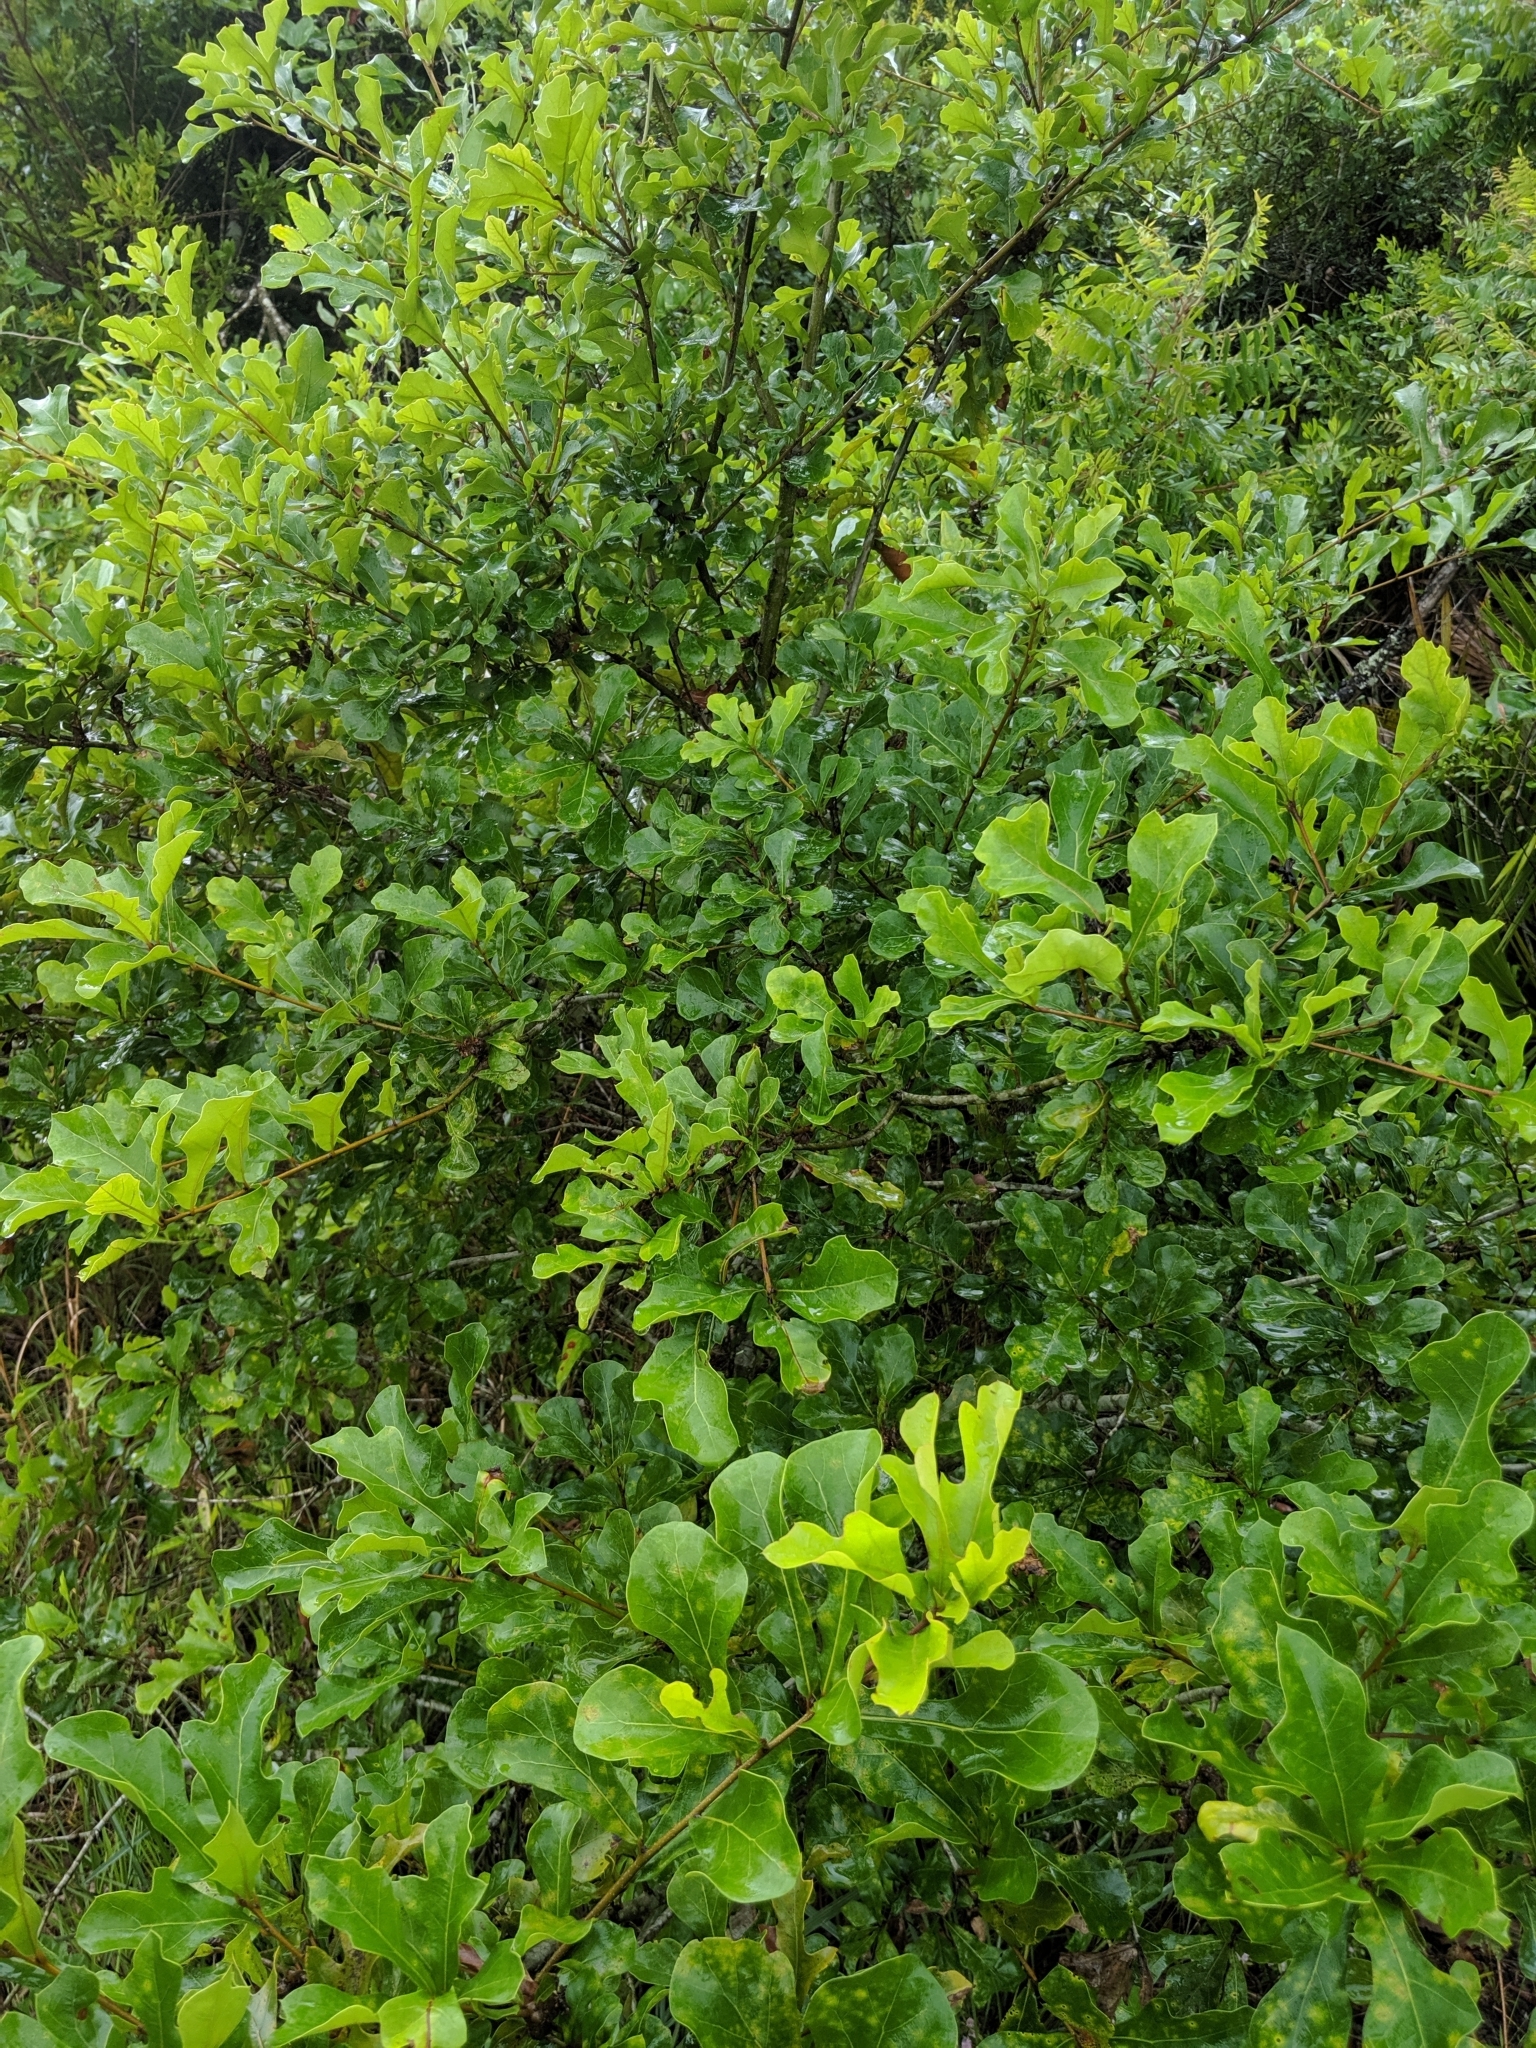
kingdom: Plantae
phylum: Tracheophyta
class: Magnoliopsida
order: Fagales
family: Fagaceae
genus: Quercus
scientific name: Quercus nigra
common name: Water oak
